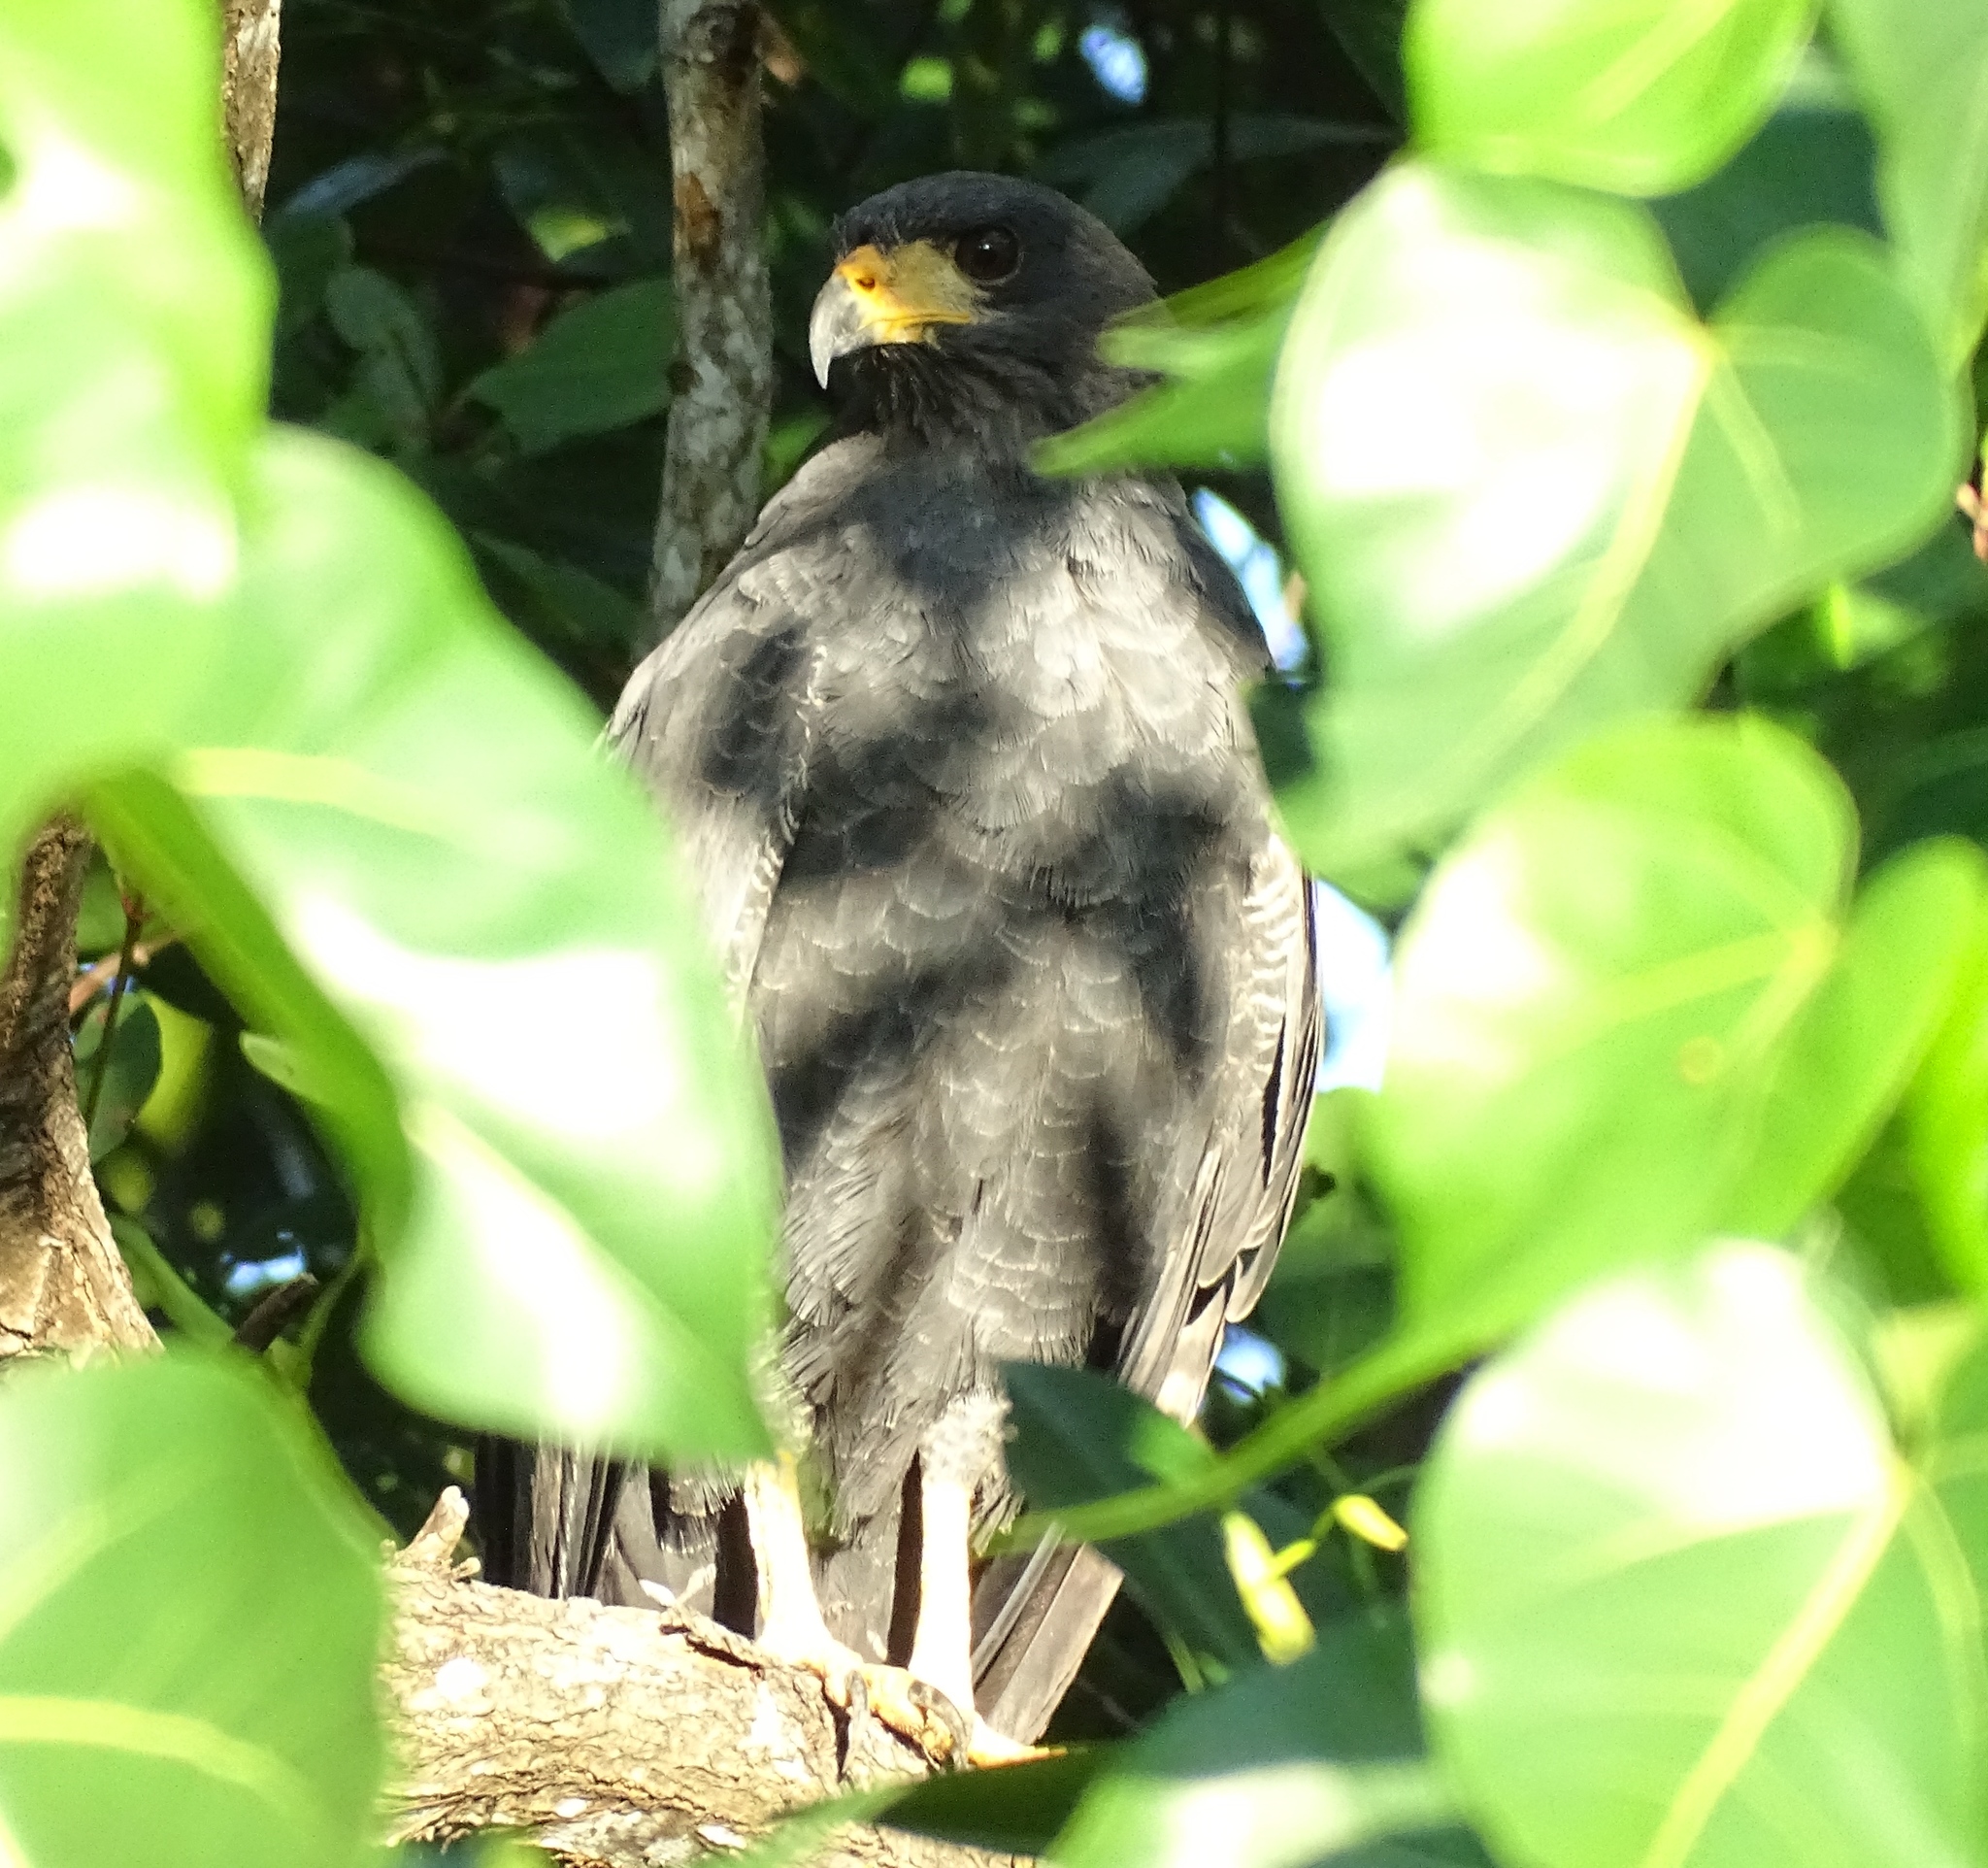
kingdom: Animalia
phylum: Chordata
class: Aves
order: Accipitriformes
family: Accipitridae
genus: Buteogallus
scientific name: Buteogallus anthracinus
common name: Common black hawk
